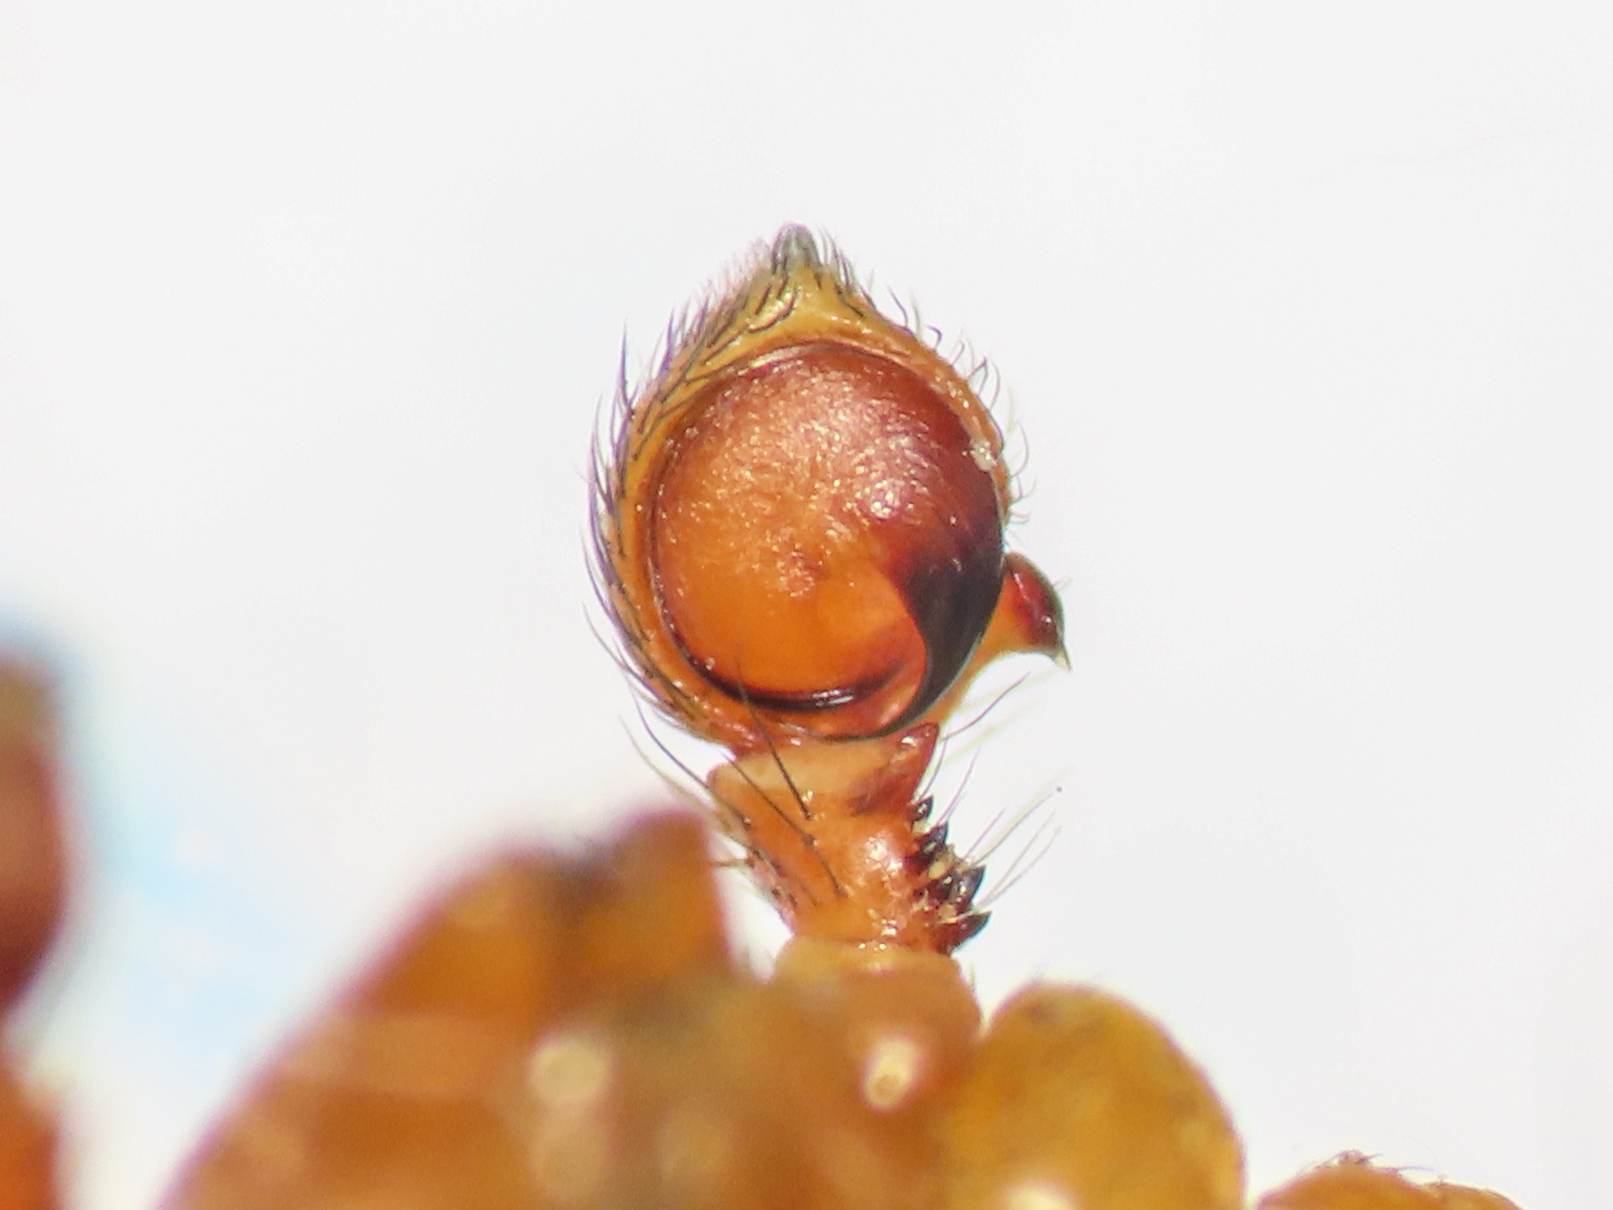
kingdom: Animalia
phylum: Arthropoda
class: Arachnida
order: Araneae
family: Thomisidae
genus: Thomisus
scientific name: Thomisus onustus
